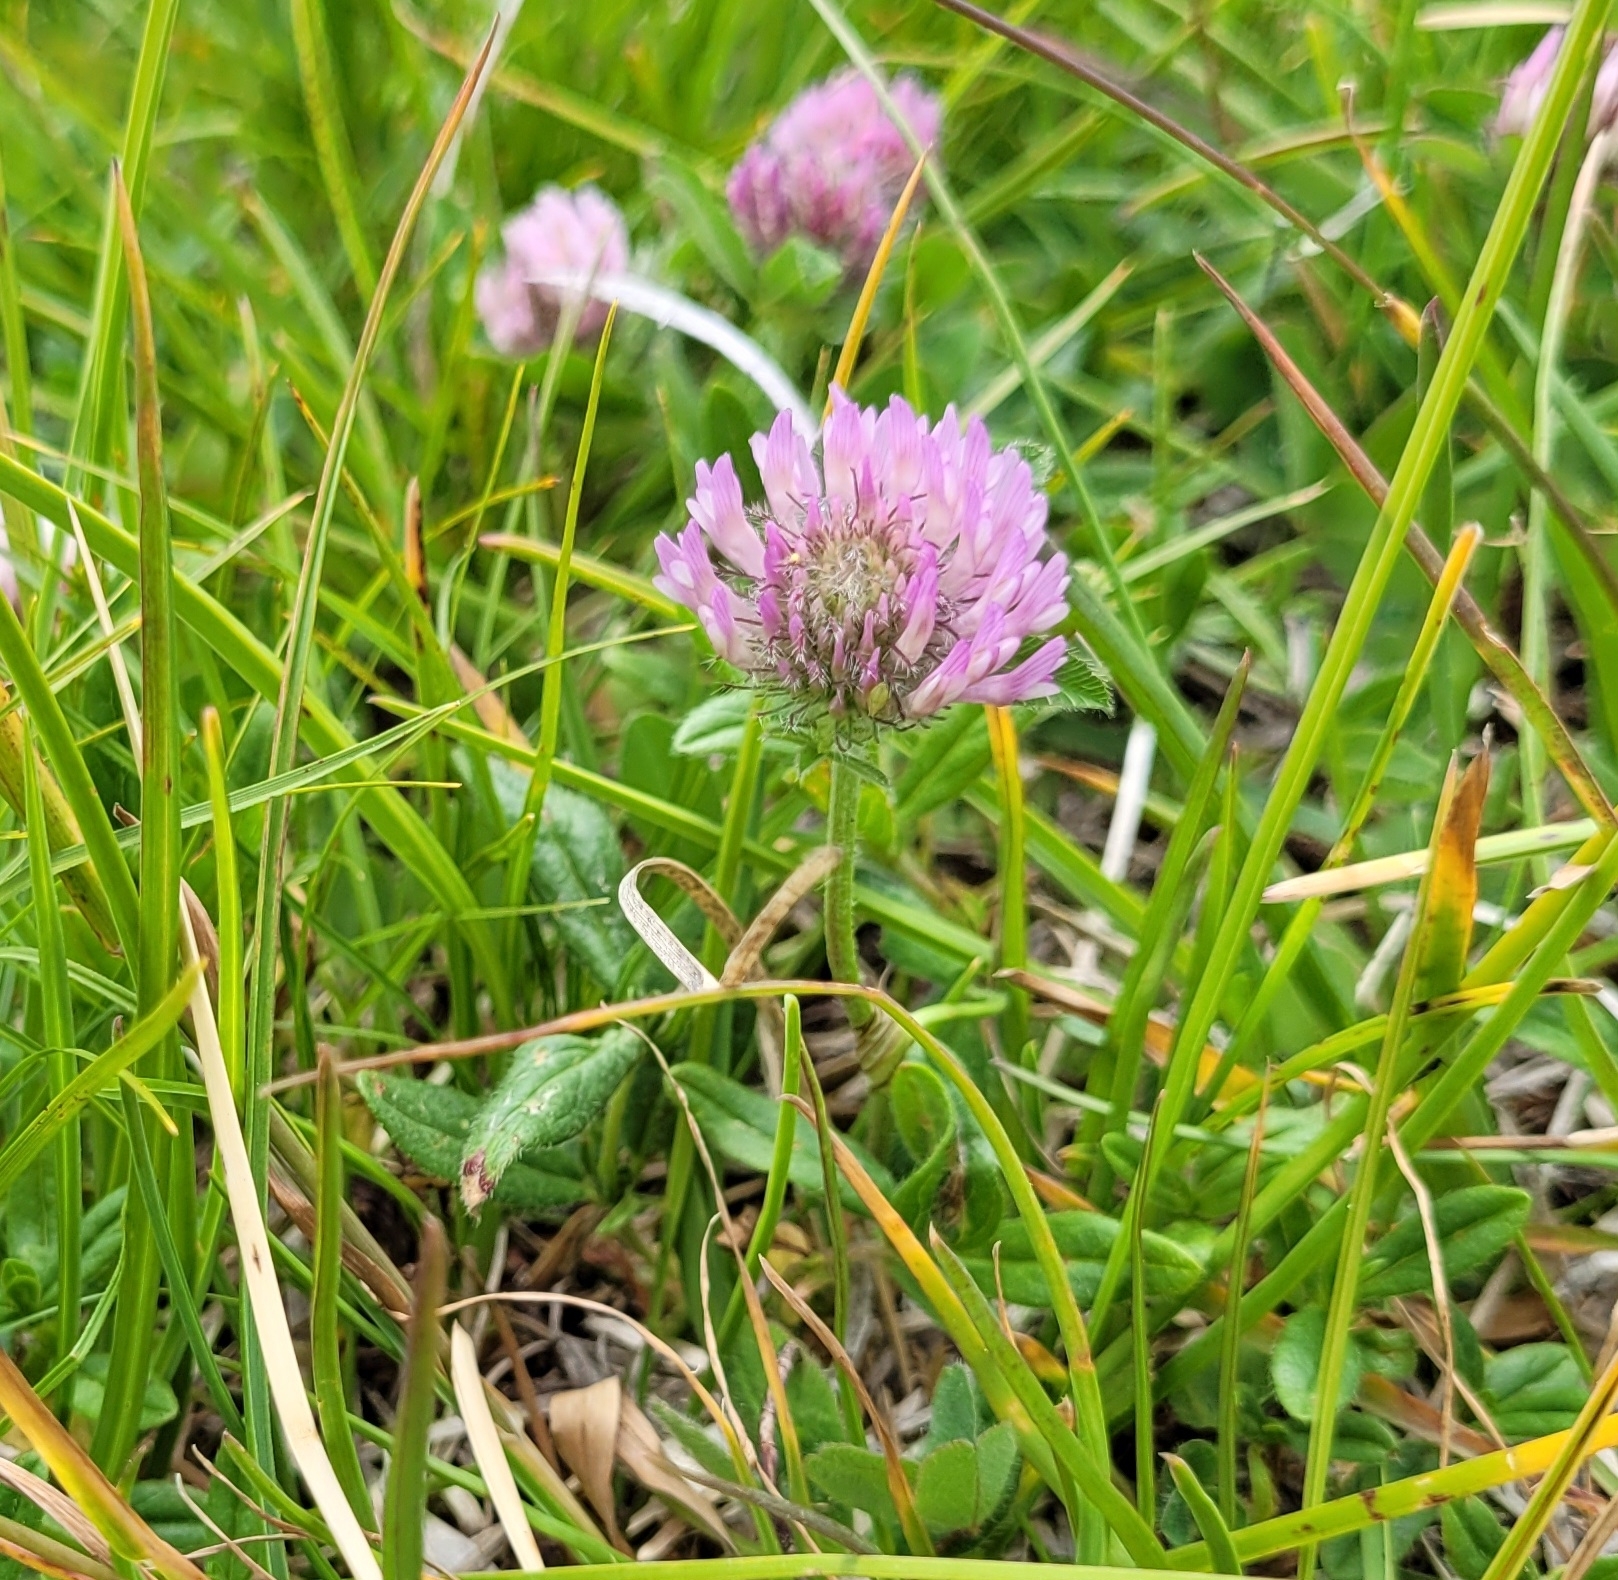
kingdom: Plantae
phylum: Tracheophyta
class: Magnoliopsida
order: Fabales
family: Fabaceae
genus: Trifolium
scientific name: Trifolium pratense
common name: Red clover
